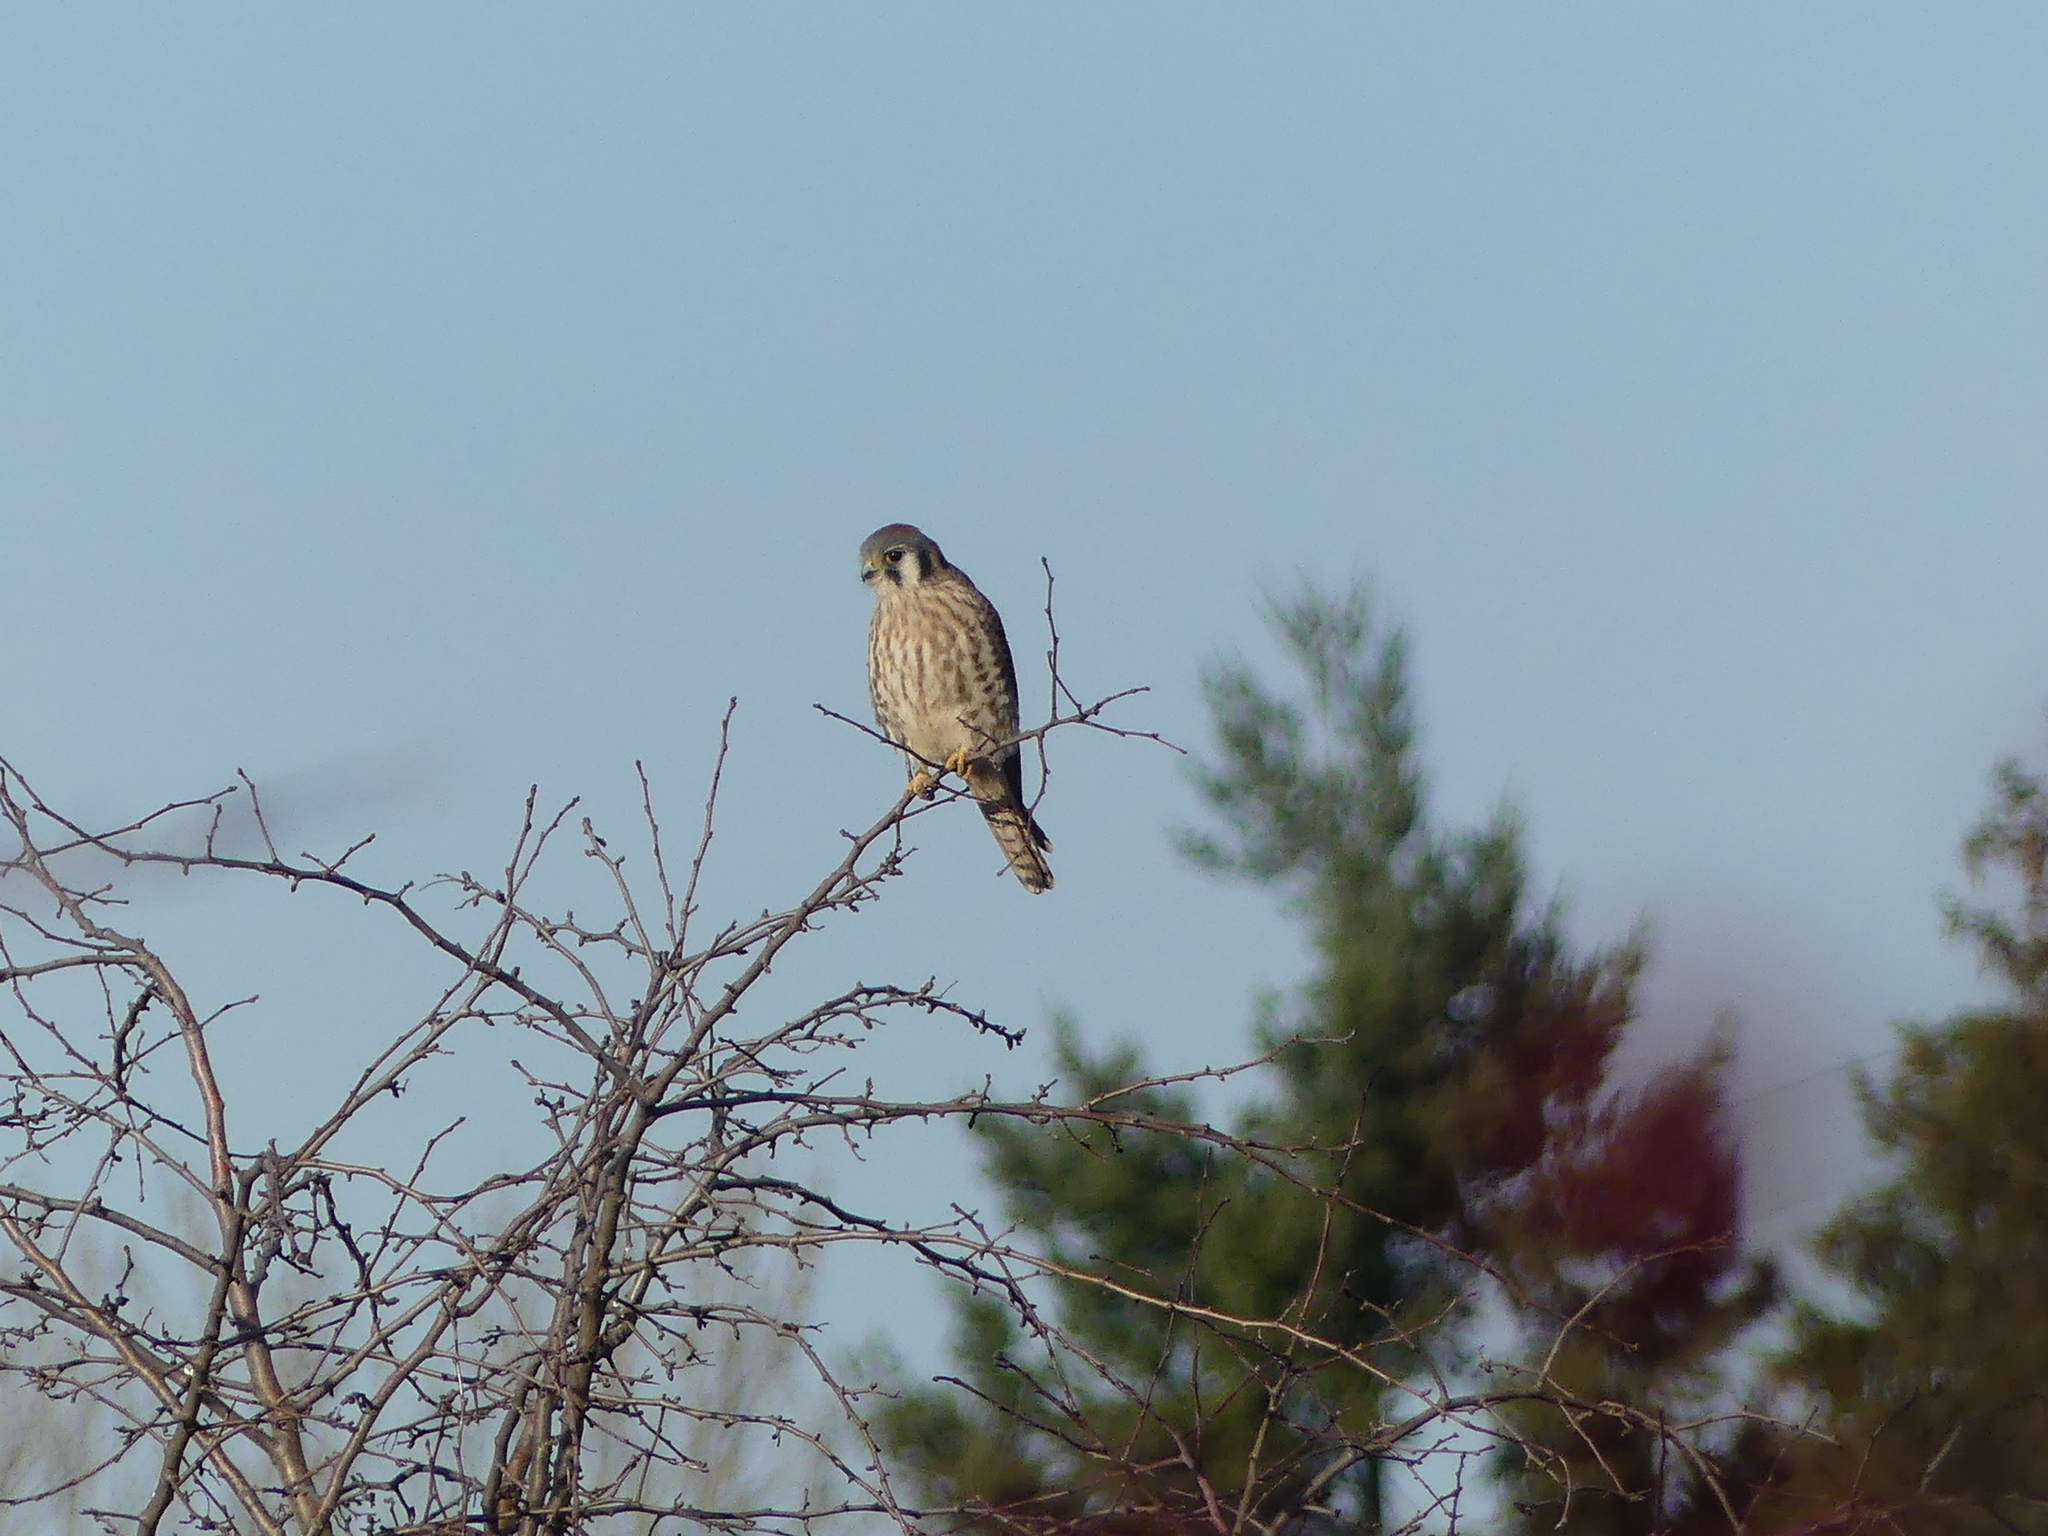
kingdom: Animalia
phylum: Chordata
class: Aves
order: Falconiformes
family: Falconidae
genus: Falco
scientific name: Falco sparverius
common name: American kestrel
